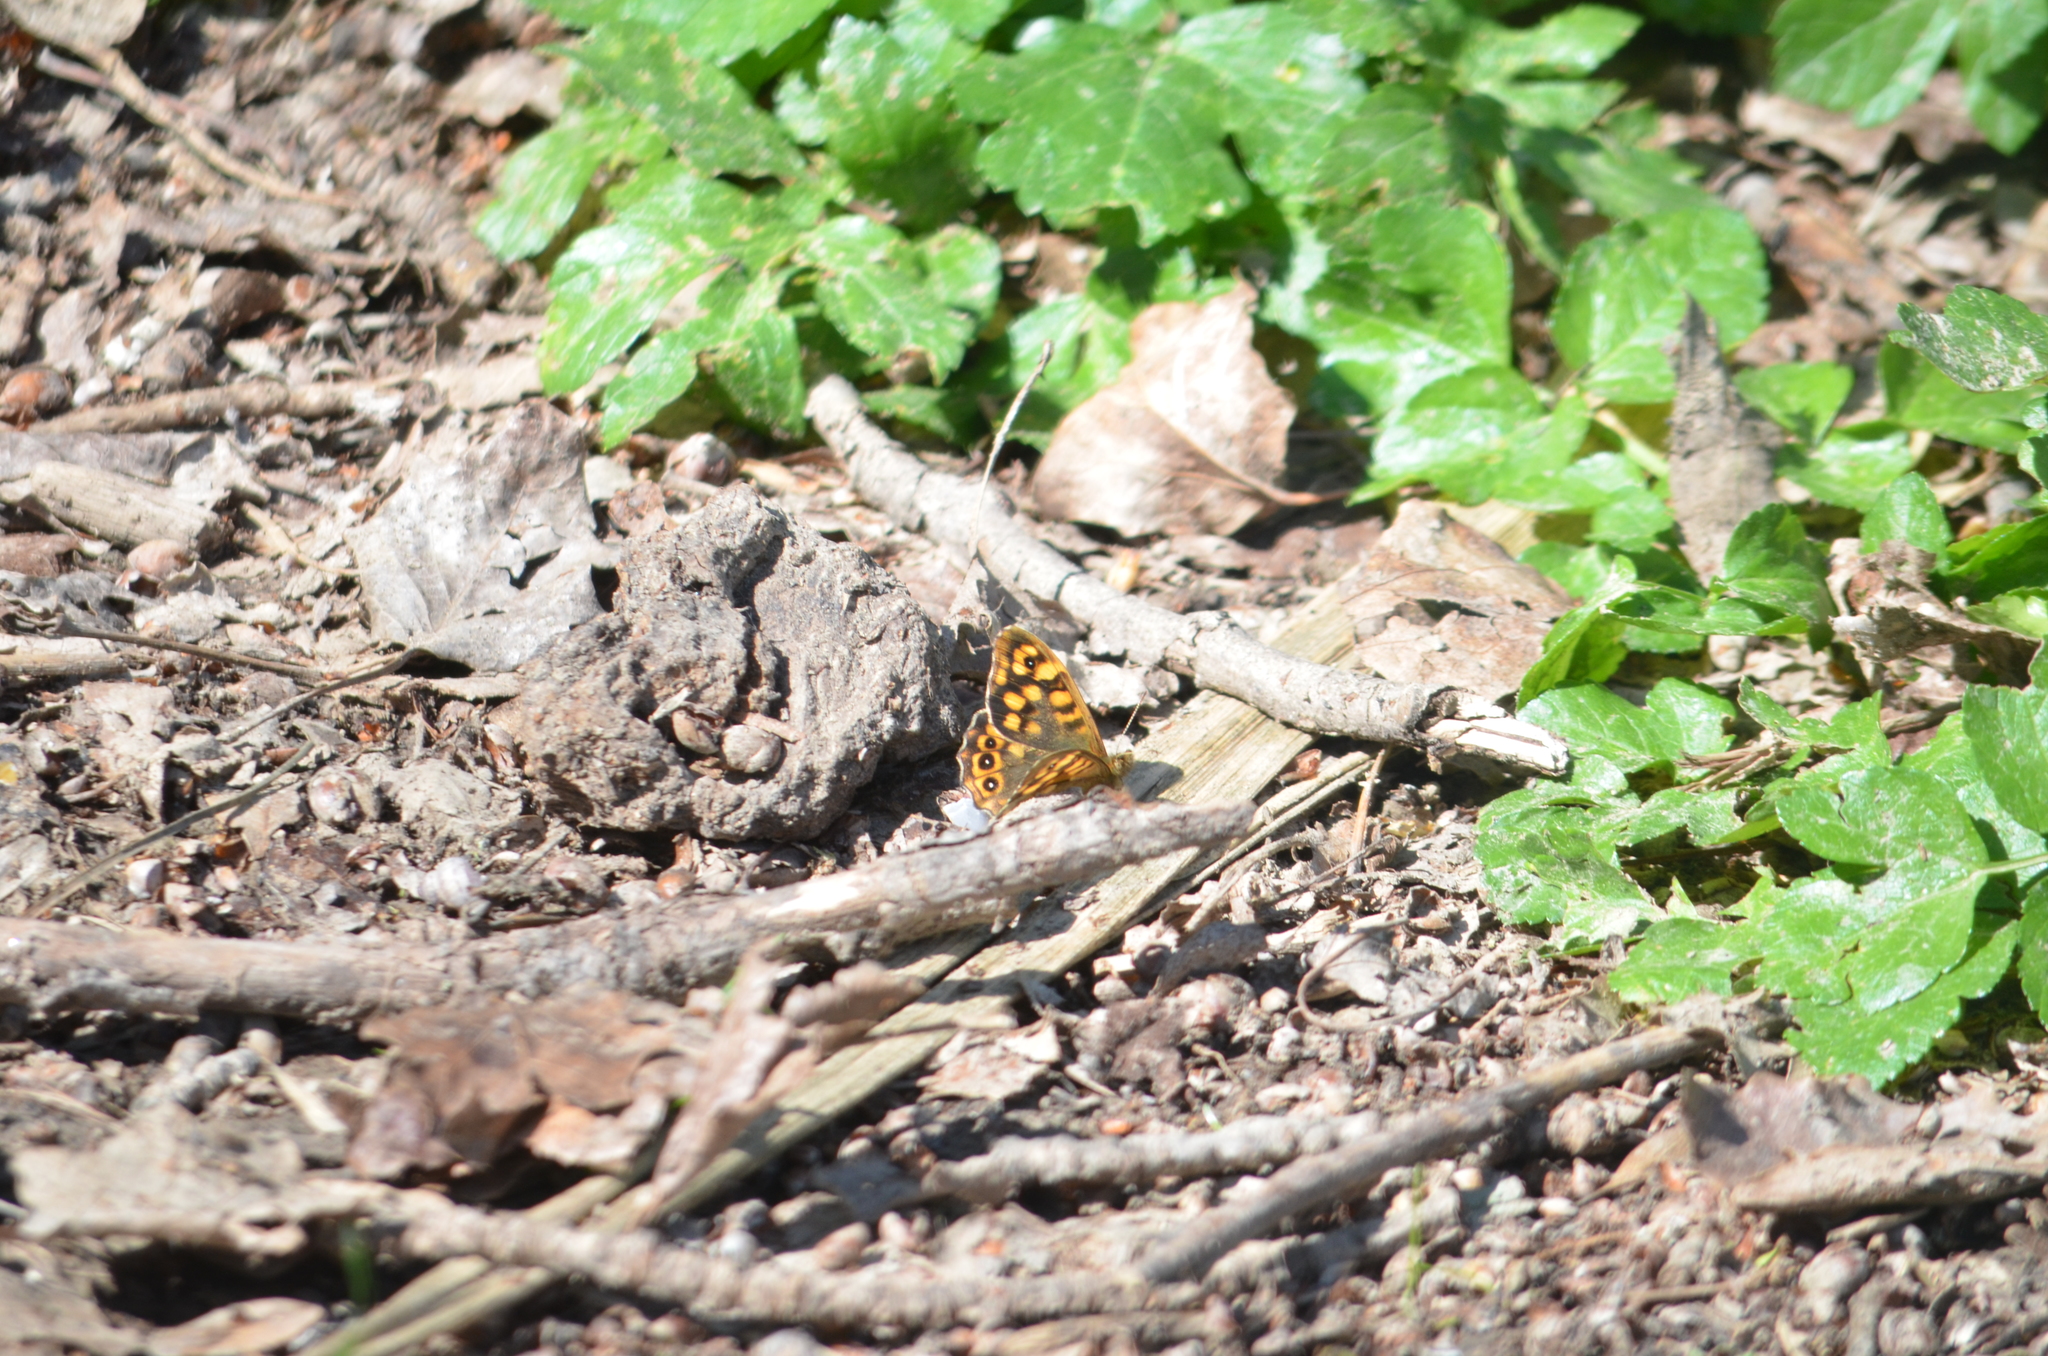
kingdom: Animalia
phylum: Arthropoda
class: Insecta
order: Lepidoptera
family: Nymphalidae
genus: Pararge
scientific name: Pararge aegeria
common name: Speckled wood
